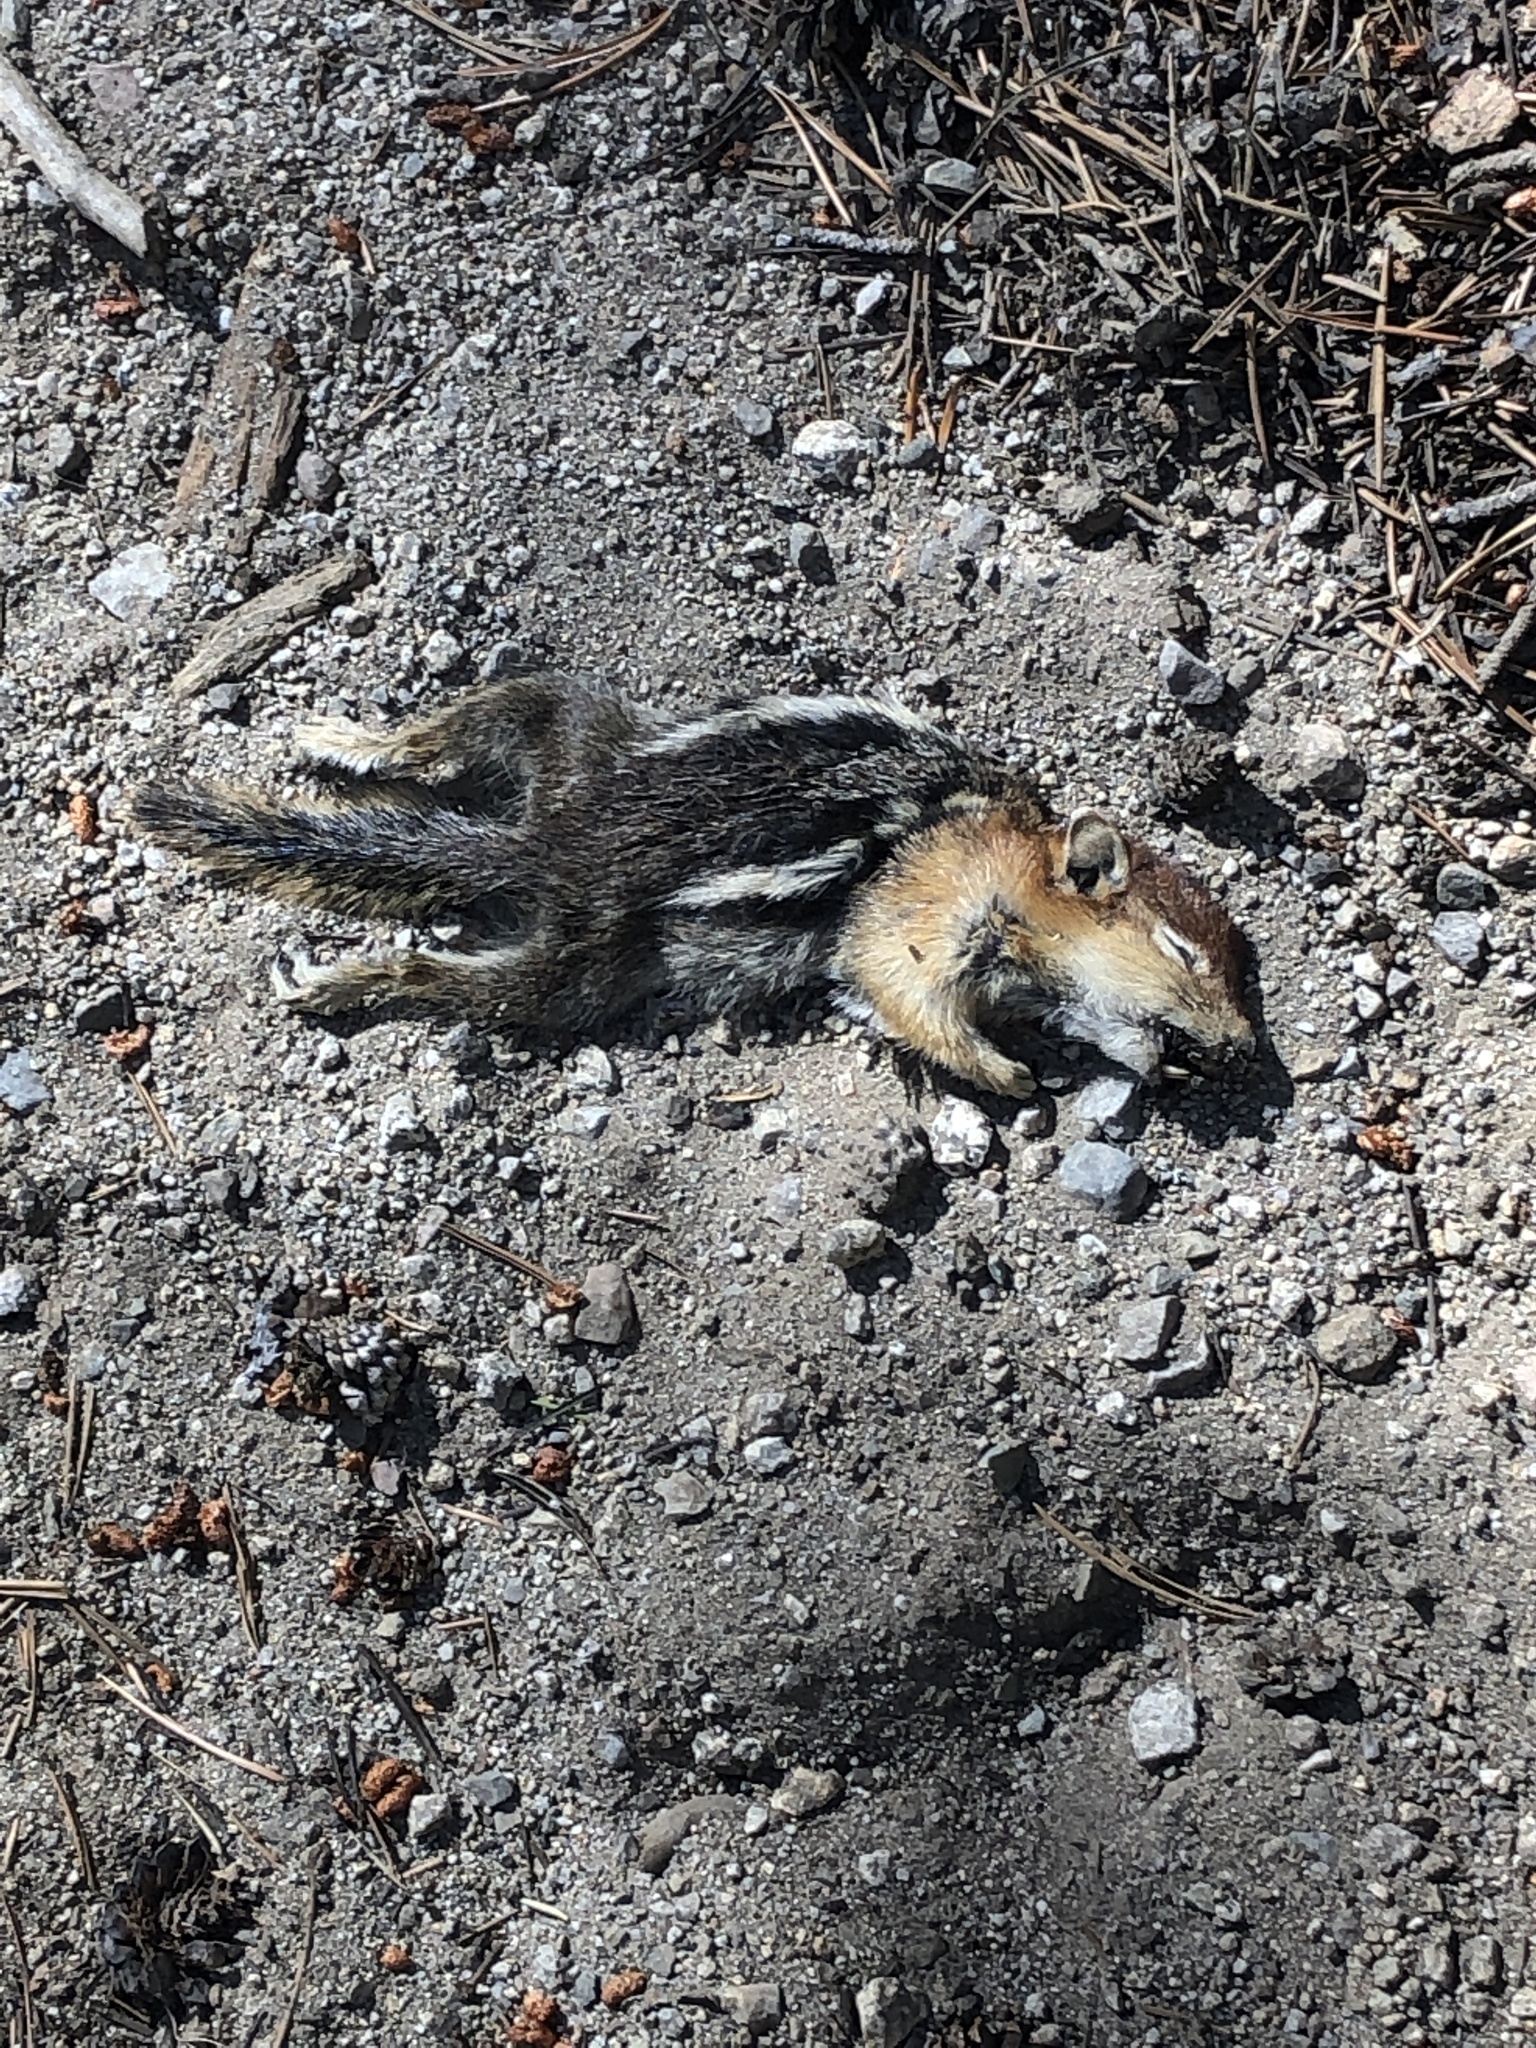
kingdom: Animalia
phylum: Chordata
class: Mammalia
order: Rodentia
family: Sciuridae
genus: Callospermophilus
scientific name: Callospermophilus lateralis
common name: Golden-mantled ground squirrel
